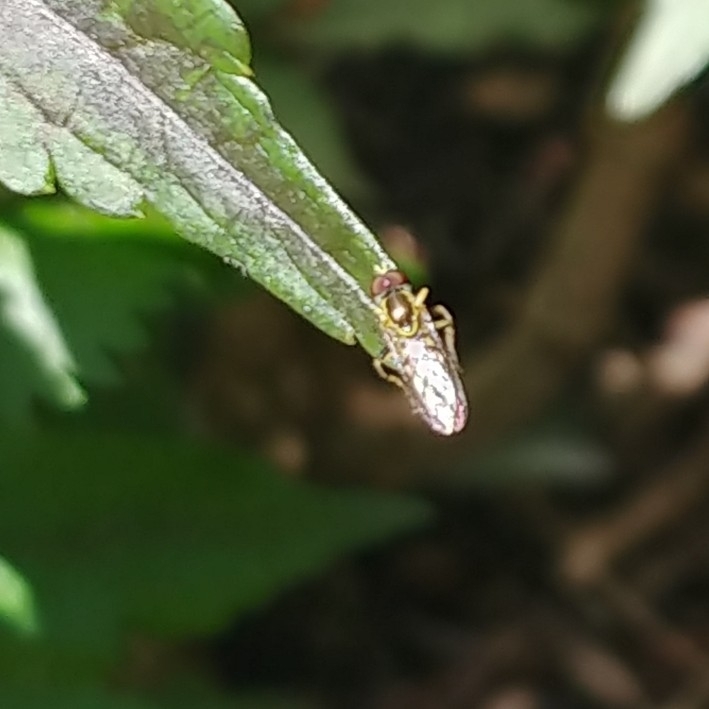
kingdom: Animalia
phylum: Arthropoda
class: Insecta
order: Diptera
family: Syrphidae
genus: Toxomerus
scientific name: Toxomerus geminatus
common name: Eastern calligrapher
